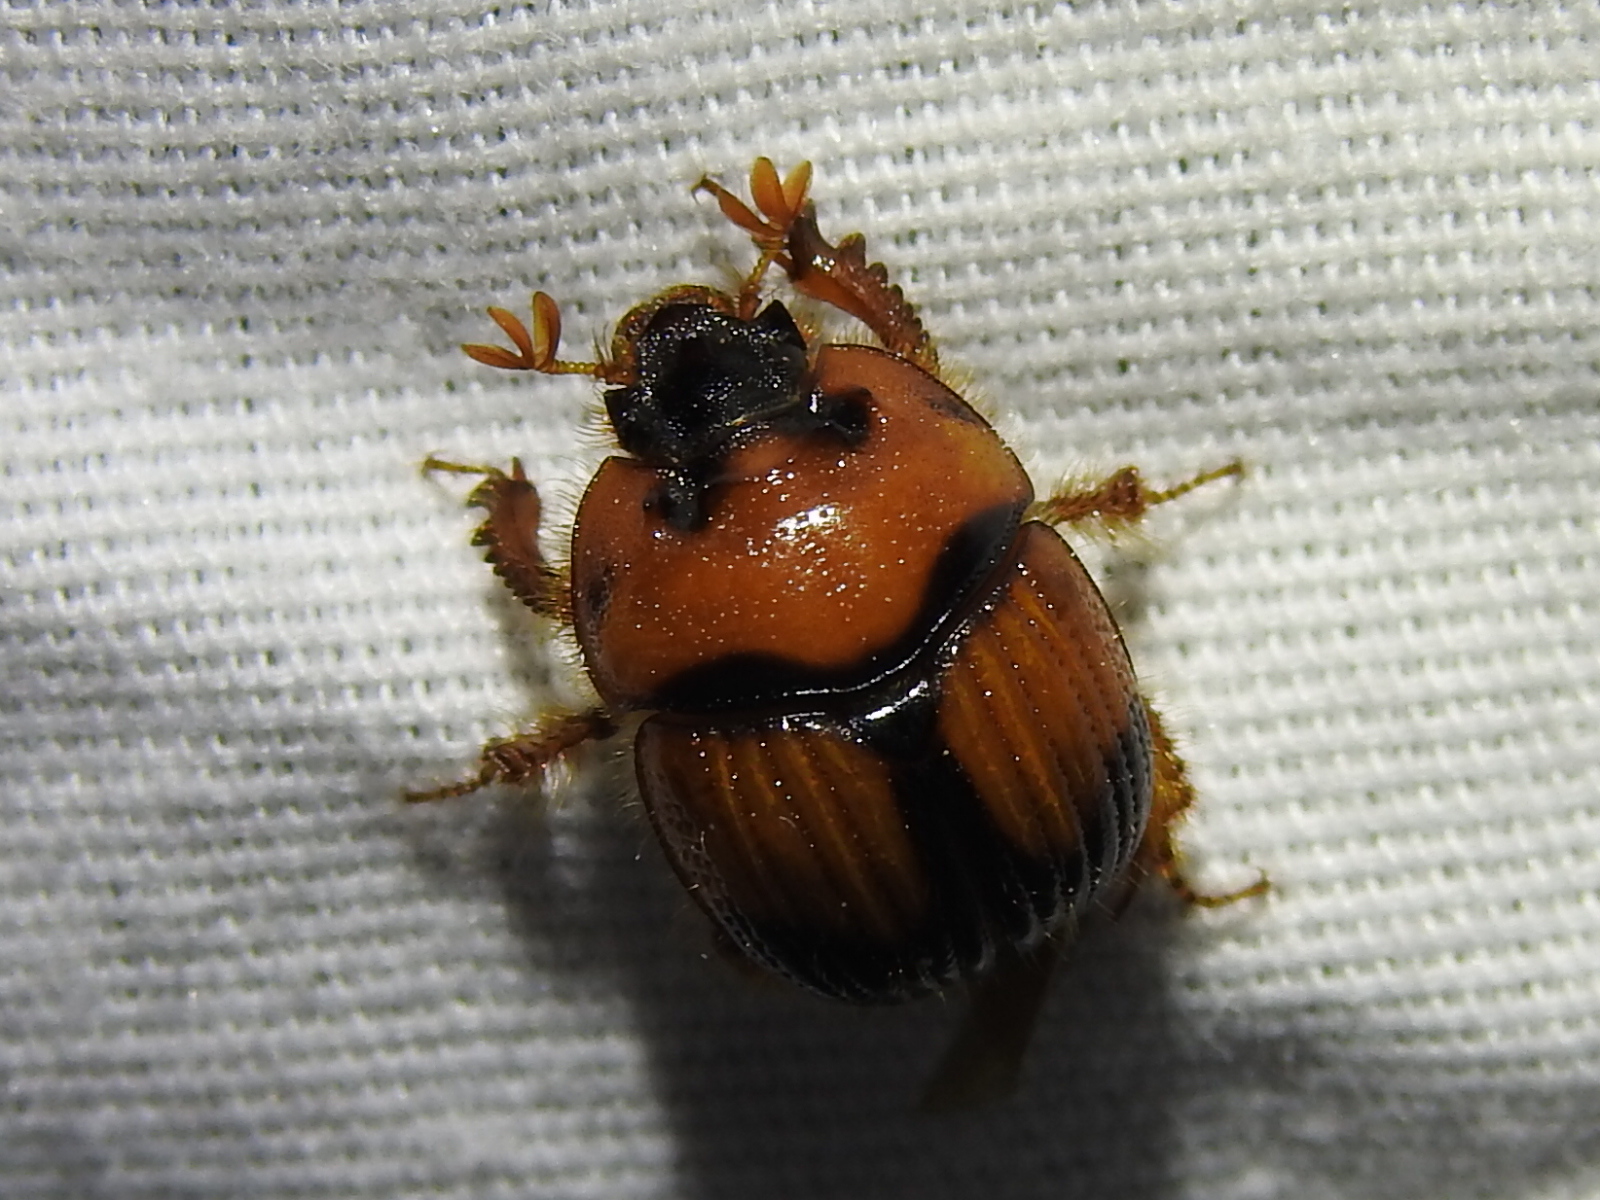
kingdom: Animalia
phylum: Arthropoda
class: Insecta
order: Coleoptera
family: Geotrupidae
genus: Bolbocerosoma
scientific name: Bolbocerosoma pusillum
